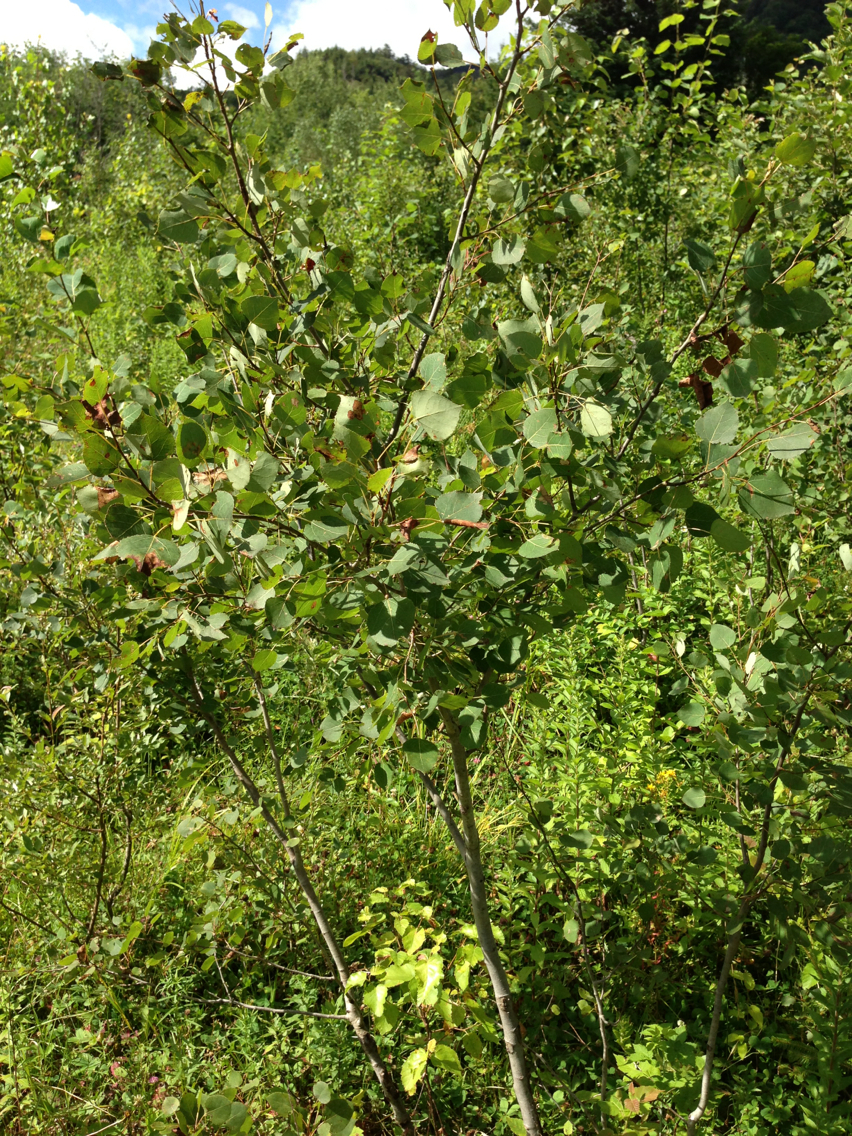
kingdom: Plantae
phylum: Tracheophyta
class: Magnoliopsida
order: Malpighiales
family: Salicaceae
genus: Populus
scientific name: Populus tremuloides
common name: Quaking aspen
